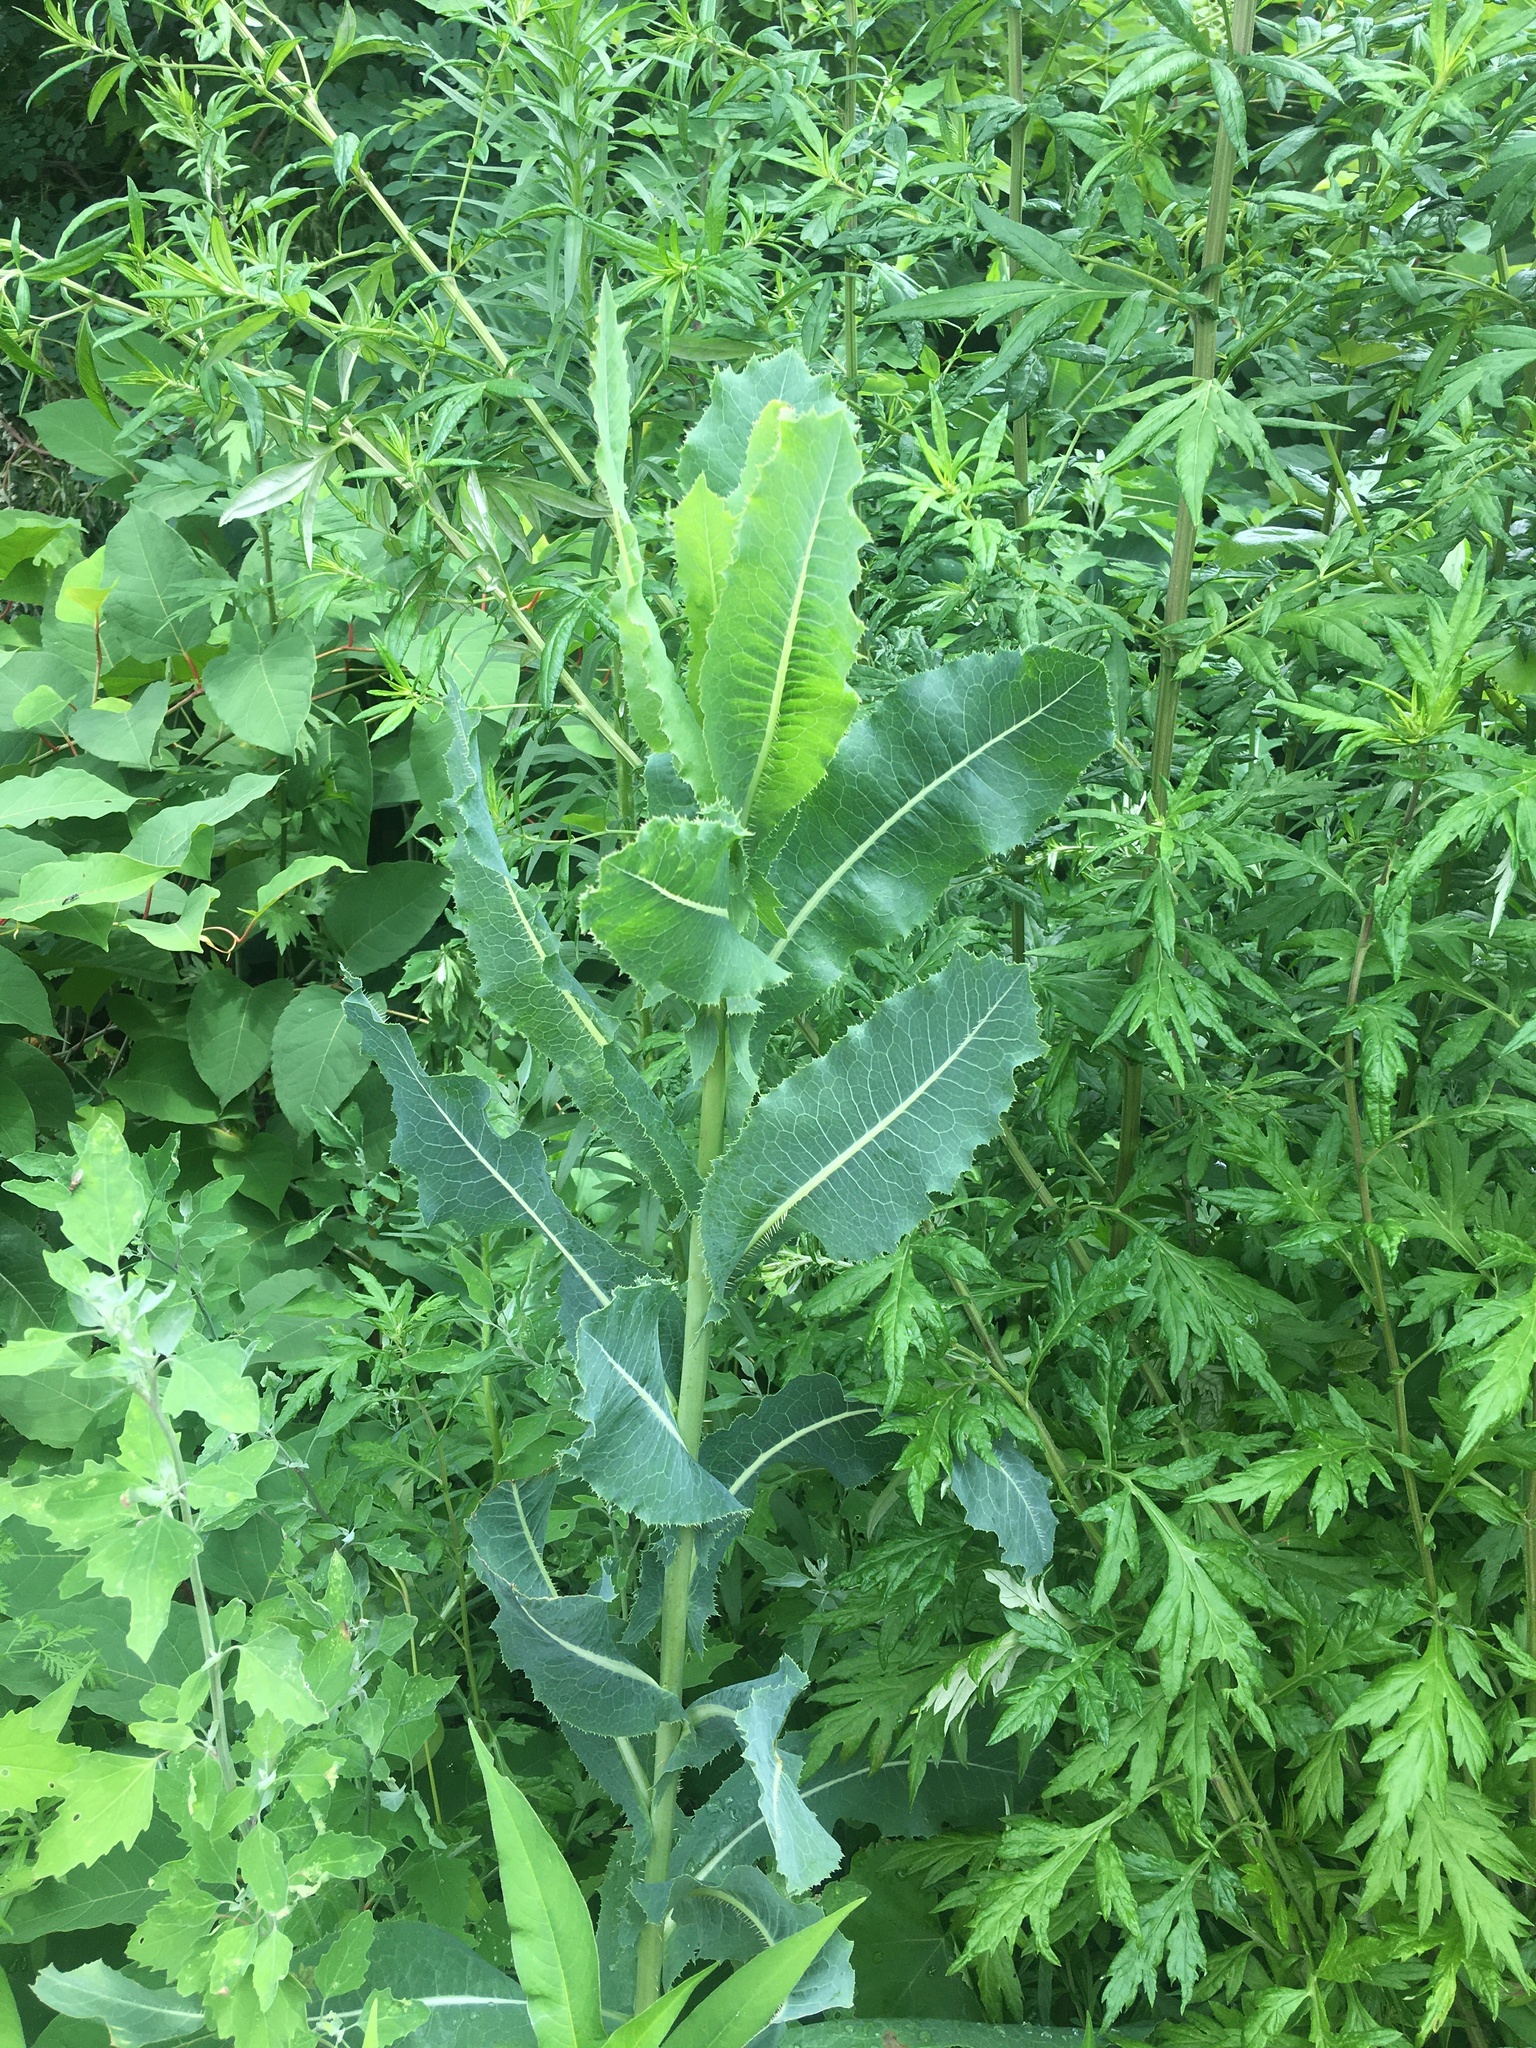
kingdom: Plantae
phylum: Tracheophyta
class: Magnoliopsida
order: Asterales
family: Asteraceae
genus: Lactuca
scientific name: Lactuca serriola
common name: Prickly lettuce
